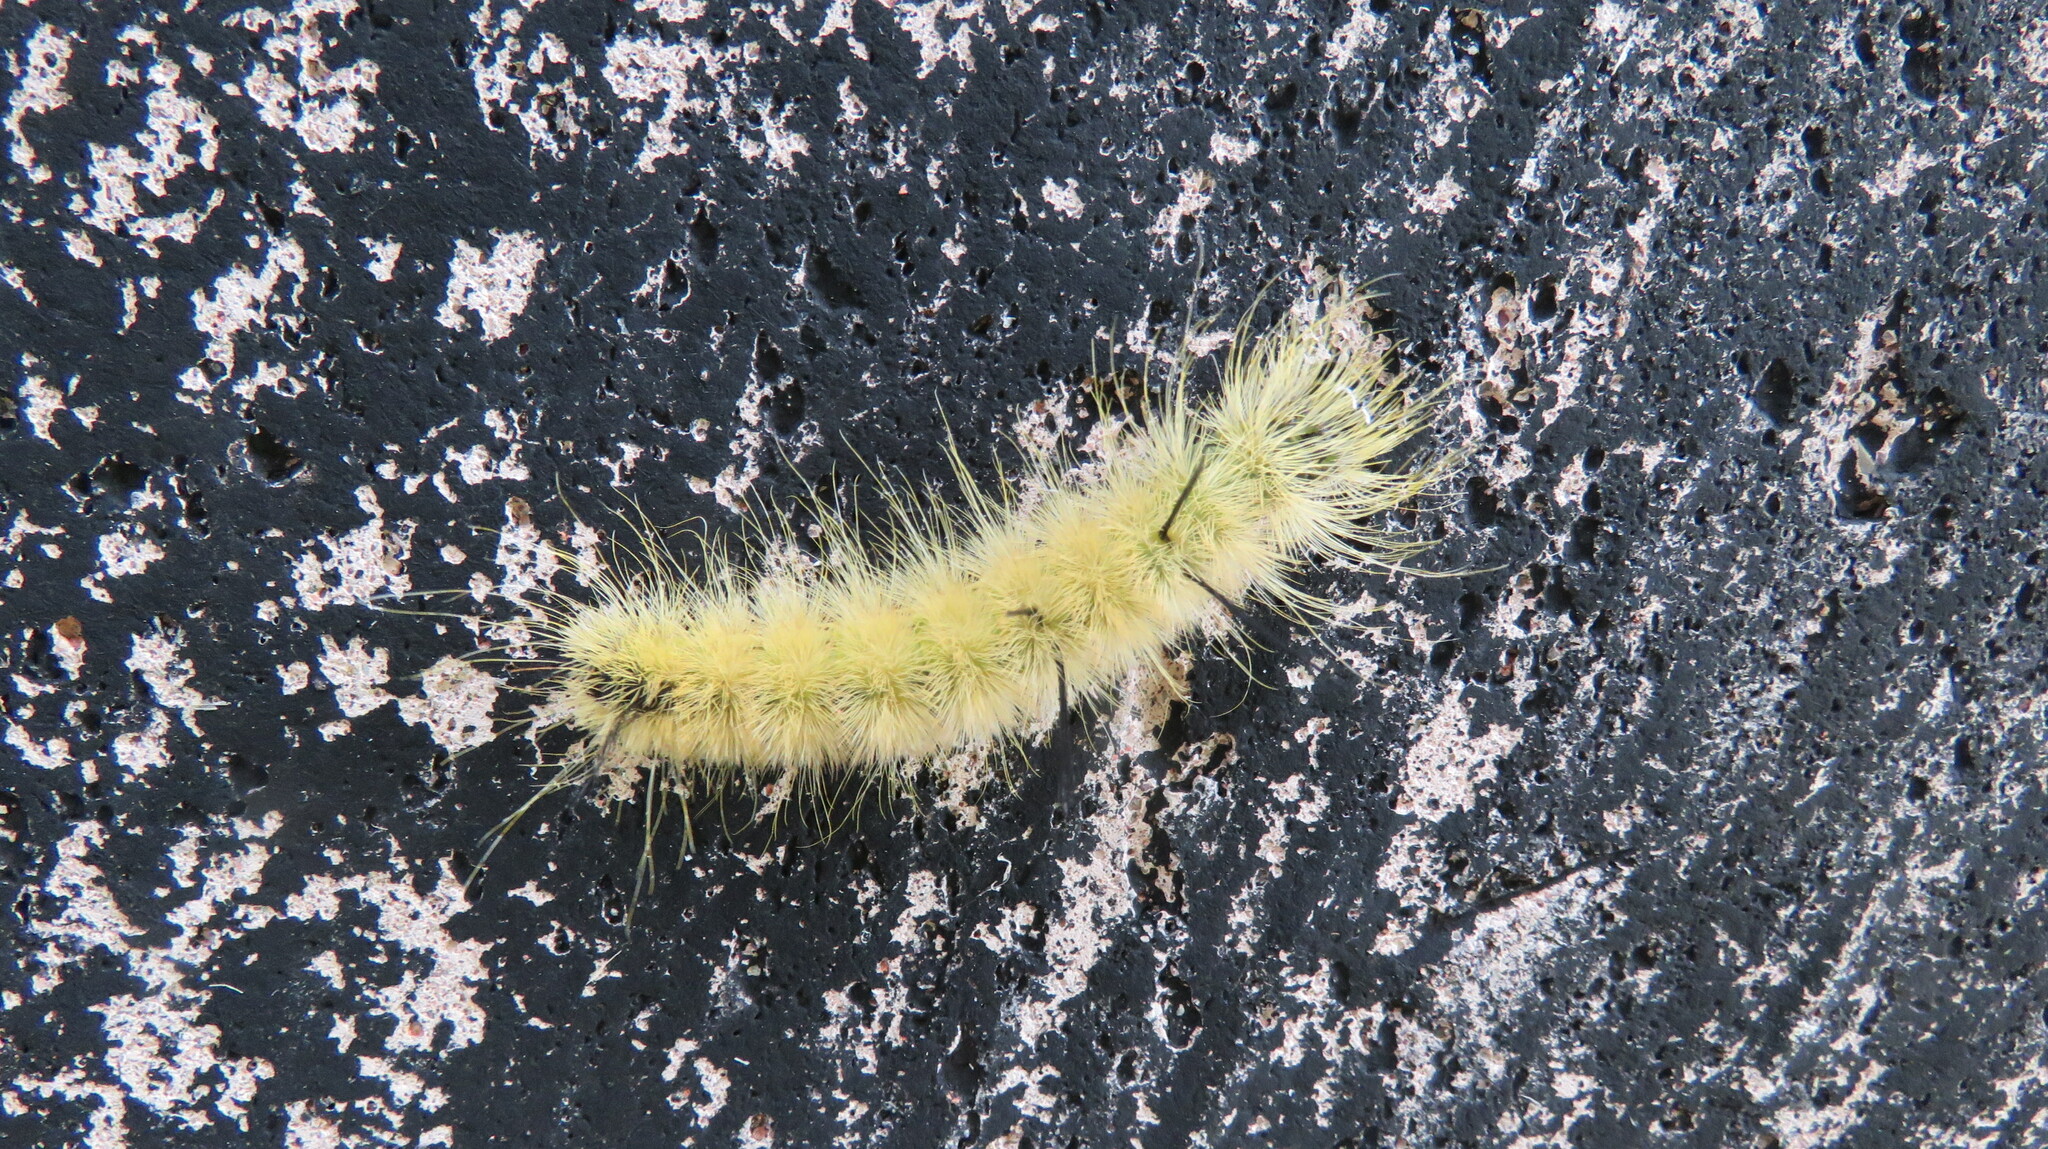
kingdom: Animalia
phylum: Arthropoda
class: Insecta
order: Lepidoptera
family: Noctuidae
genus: Acronicta
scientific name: Acronicta americana
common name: American dagger
